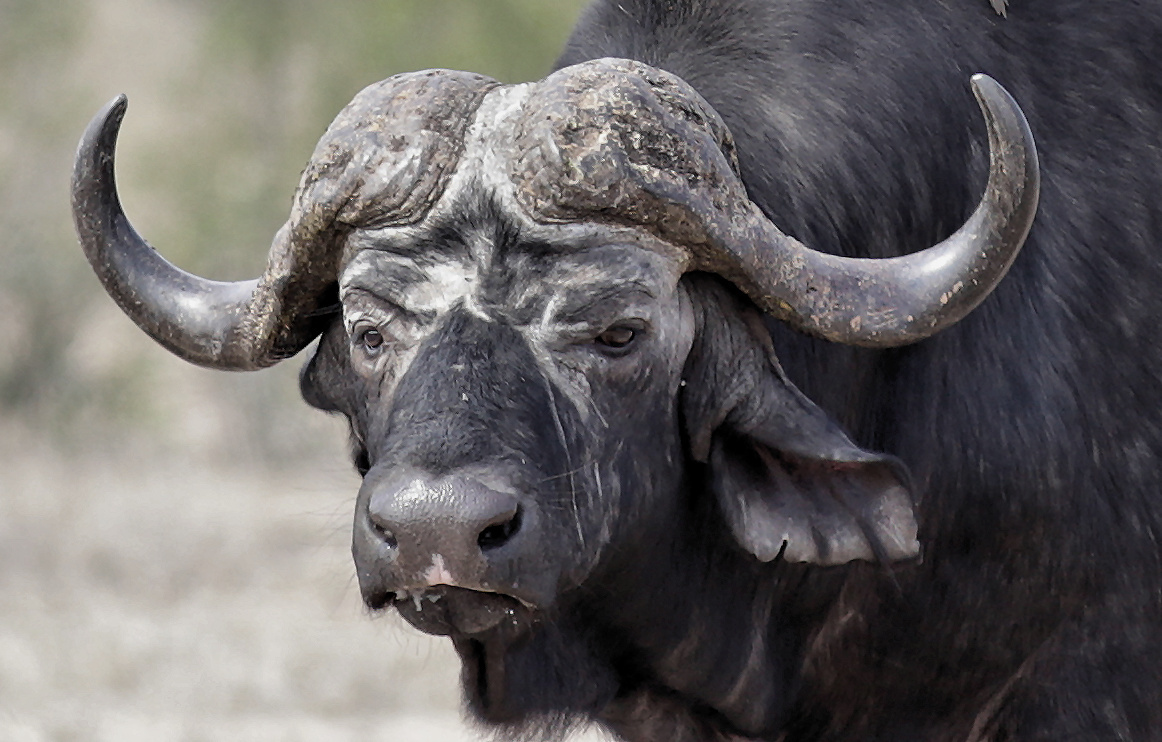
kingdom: Animalia
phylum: Chordata
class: Mammalia
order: Artiodactyla
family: Bovidae
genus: Syncerus
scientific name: Syncerus caffer
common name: African buffalo
